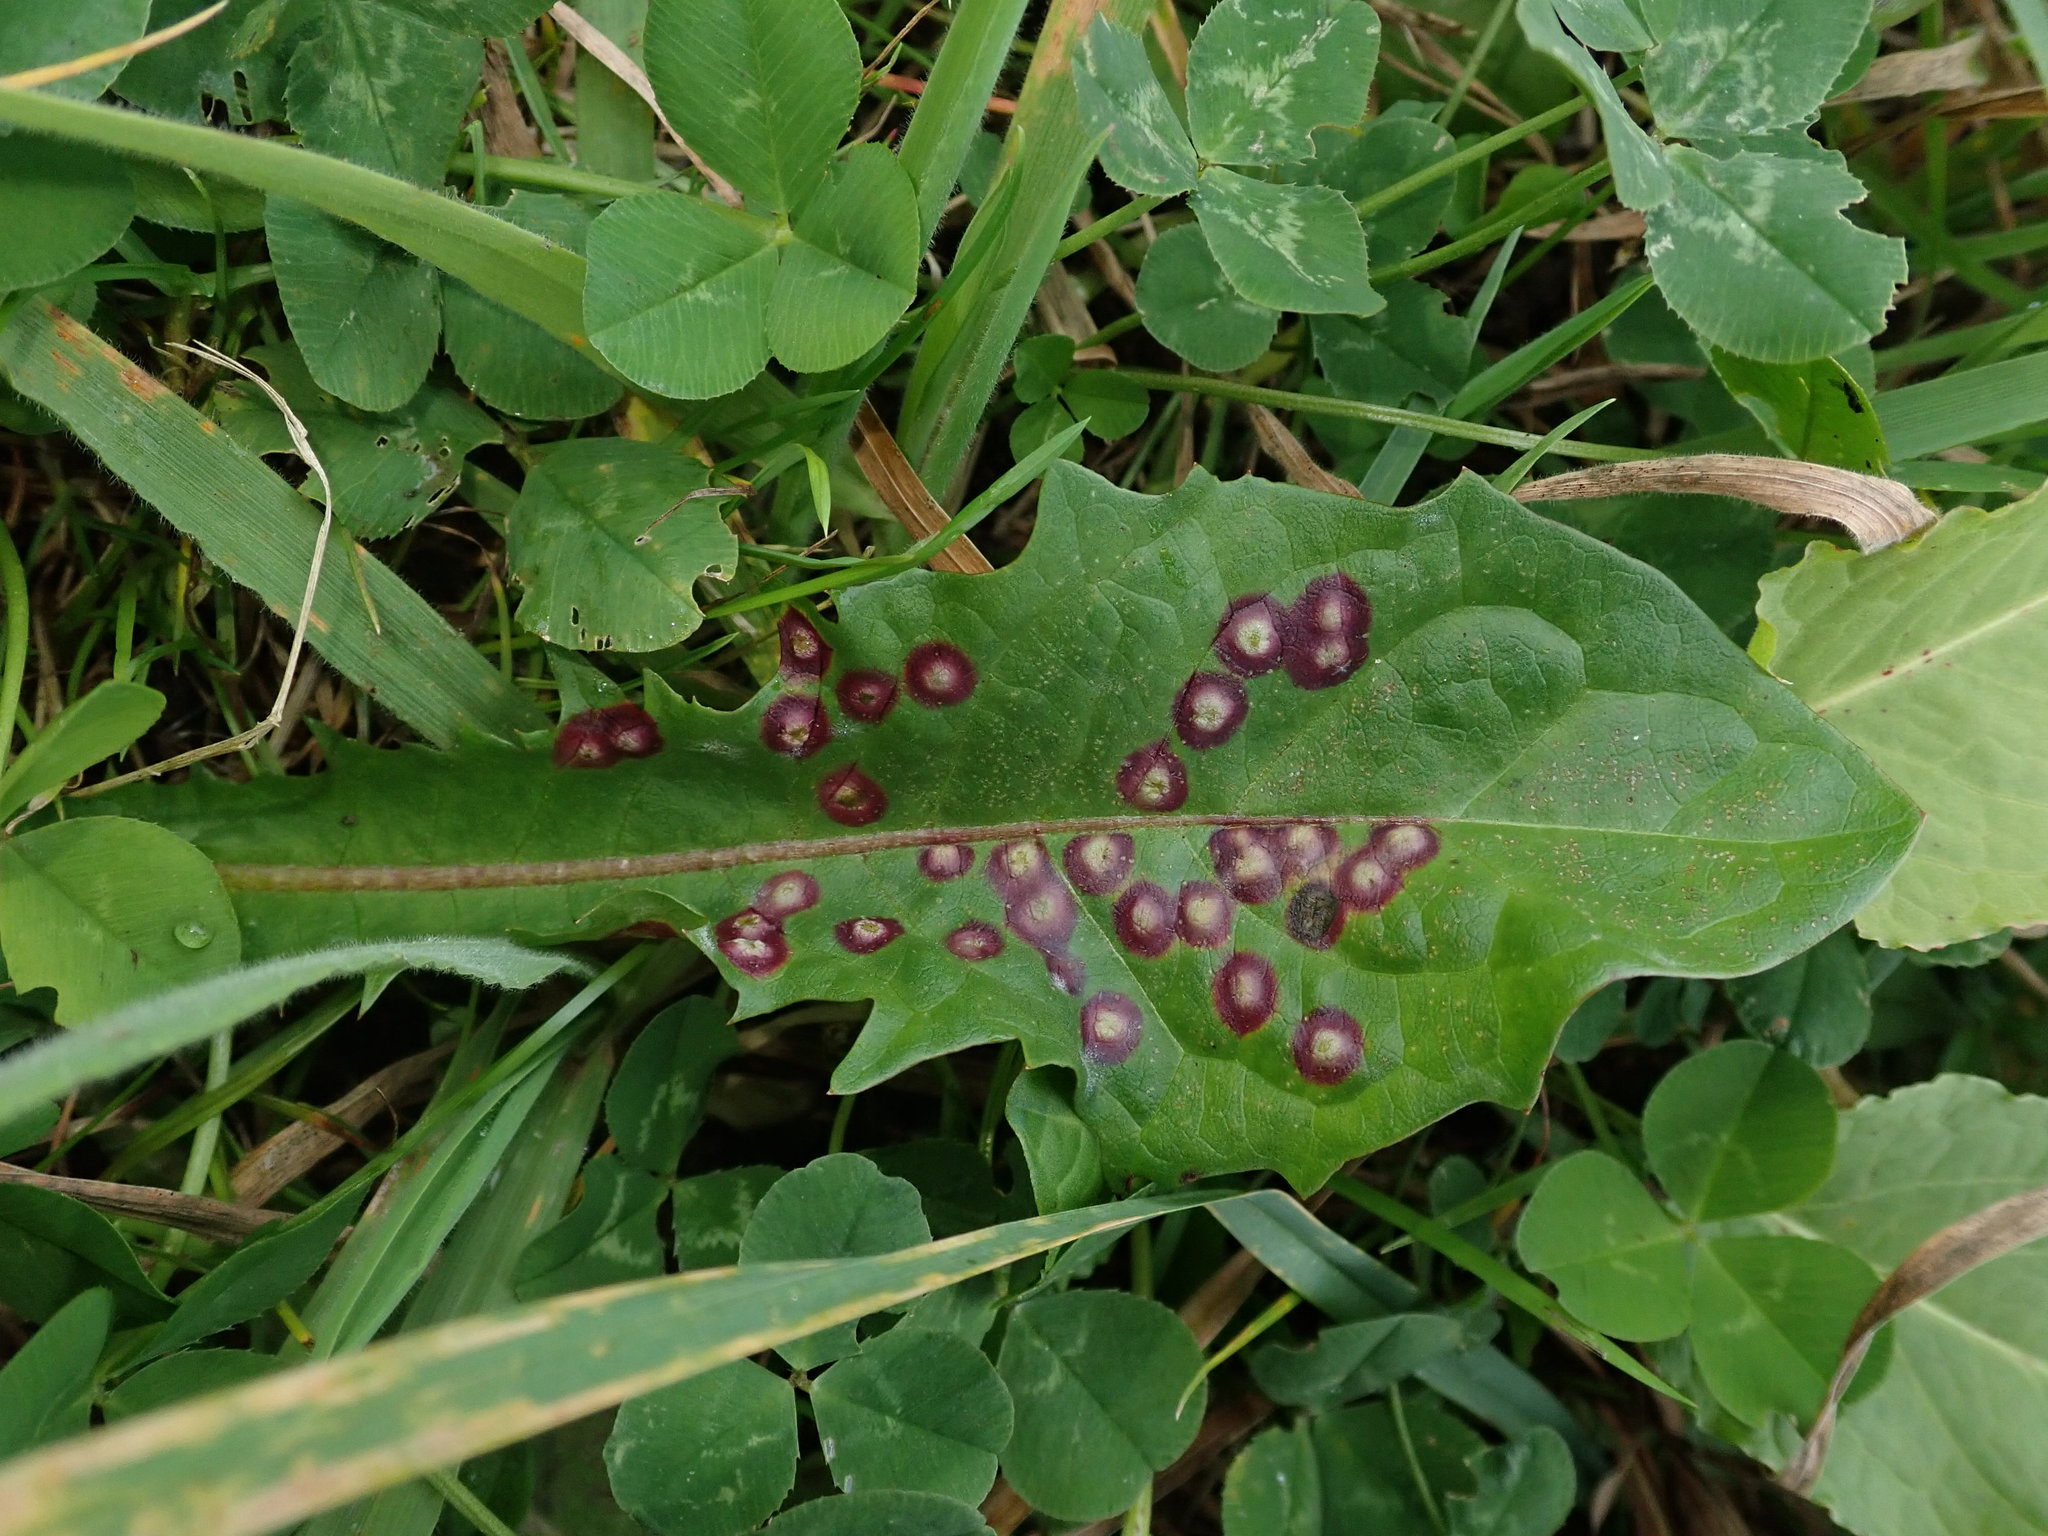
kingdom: Animalia
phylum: Arthropoda
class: Insecta
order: Diptera
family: Cecidomyiidae
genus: Cystiphora
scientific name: Cystiphora taraxaci
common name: Biting midge
